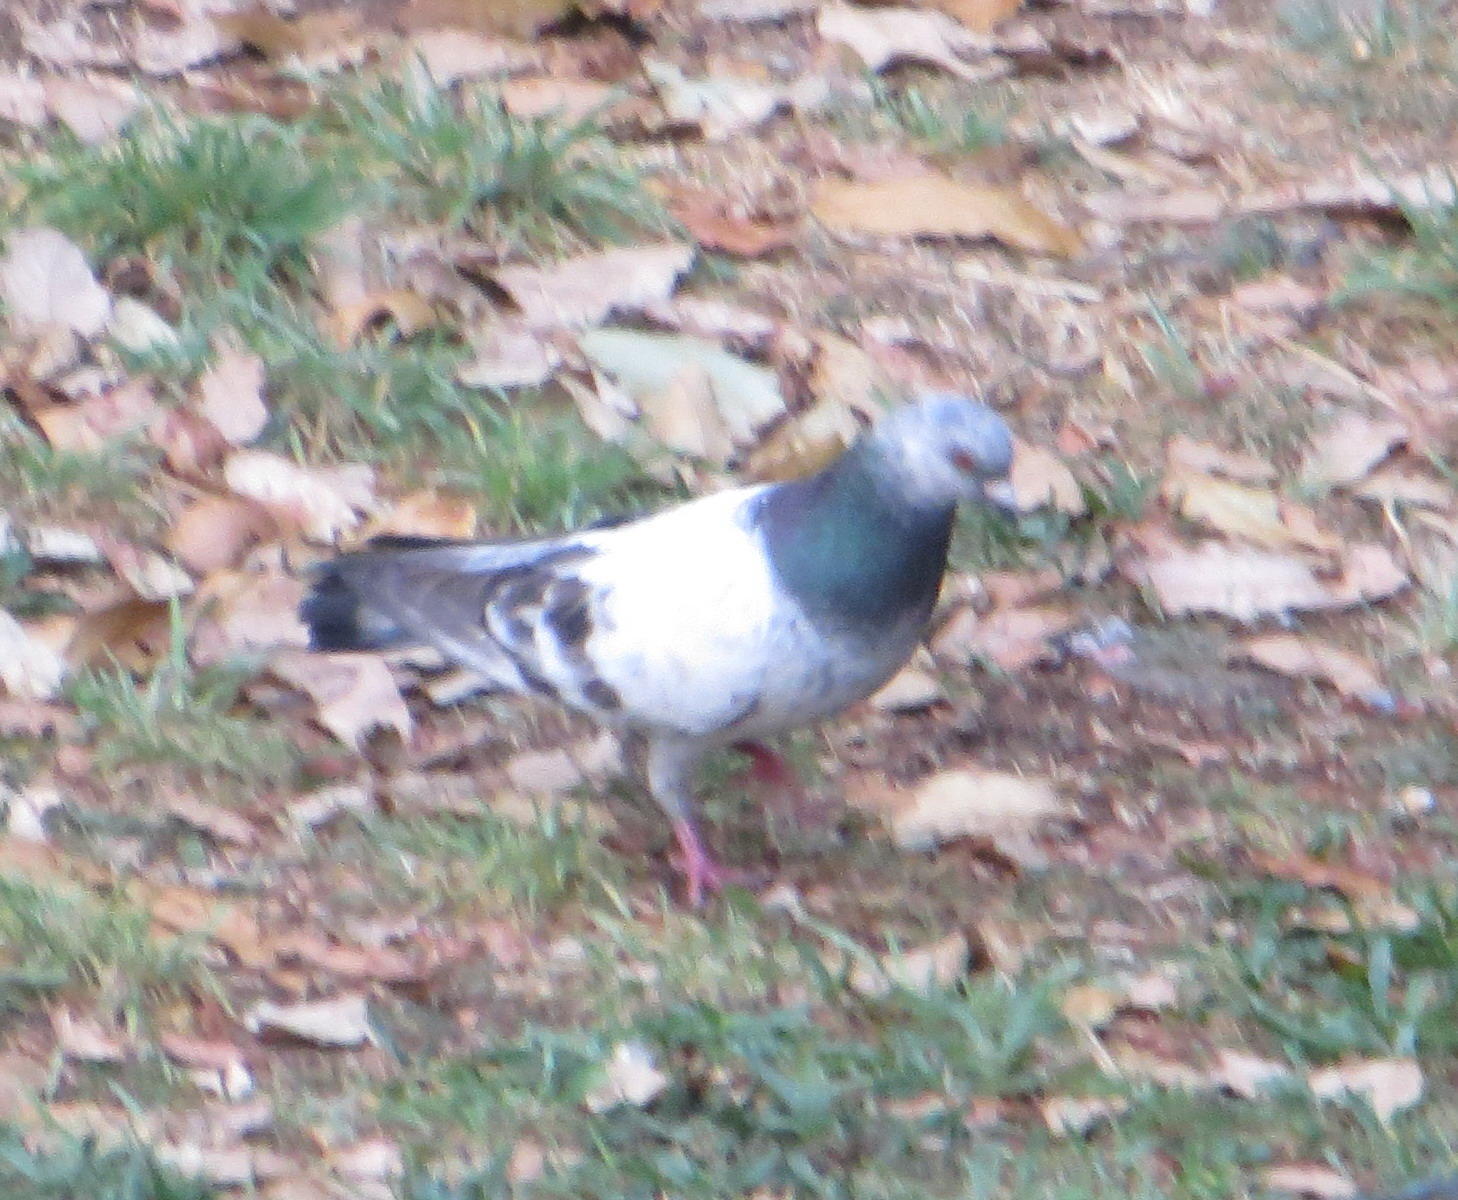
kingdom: Animalia
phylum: Chordata
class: Aves
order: Columbiformes
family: Columbidae
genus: Columba
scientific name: Columba livia
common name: Rock pigeon
